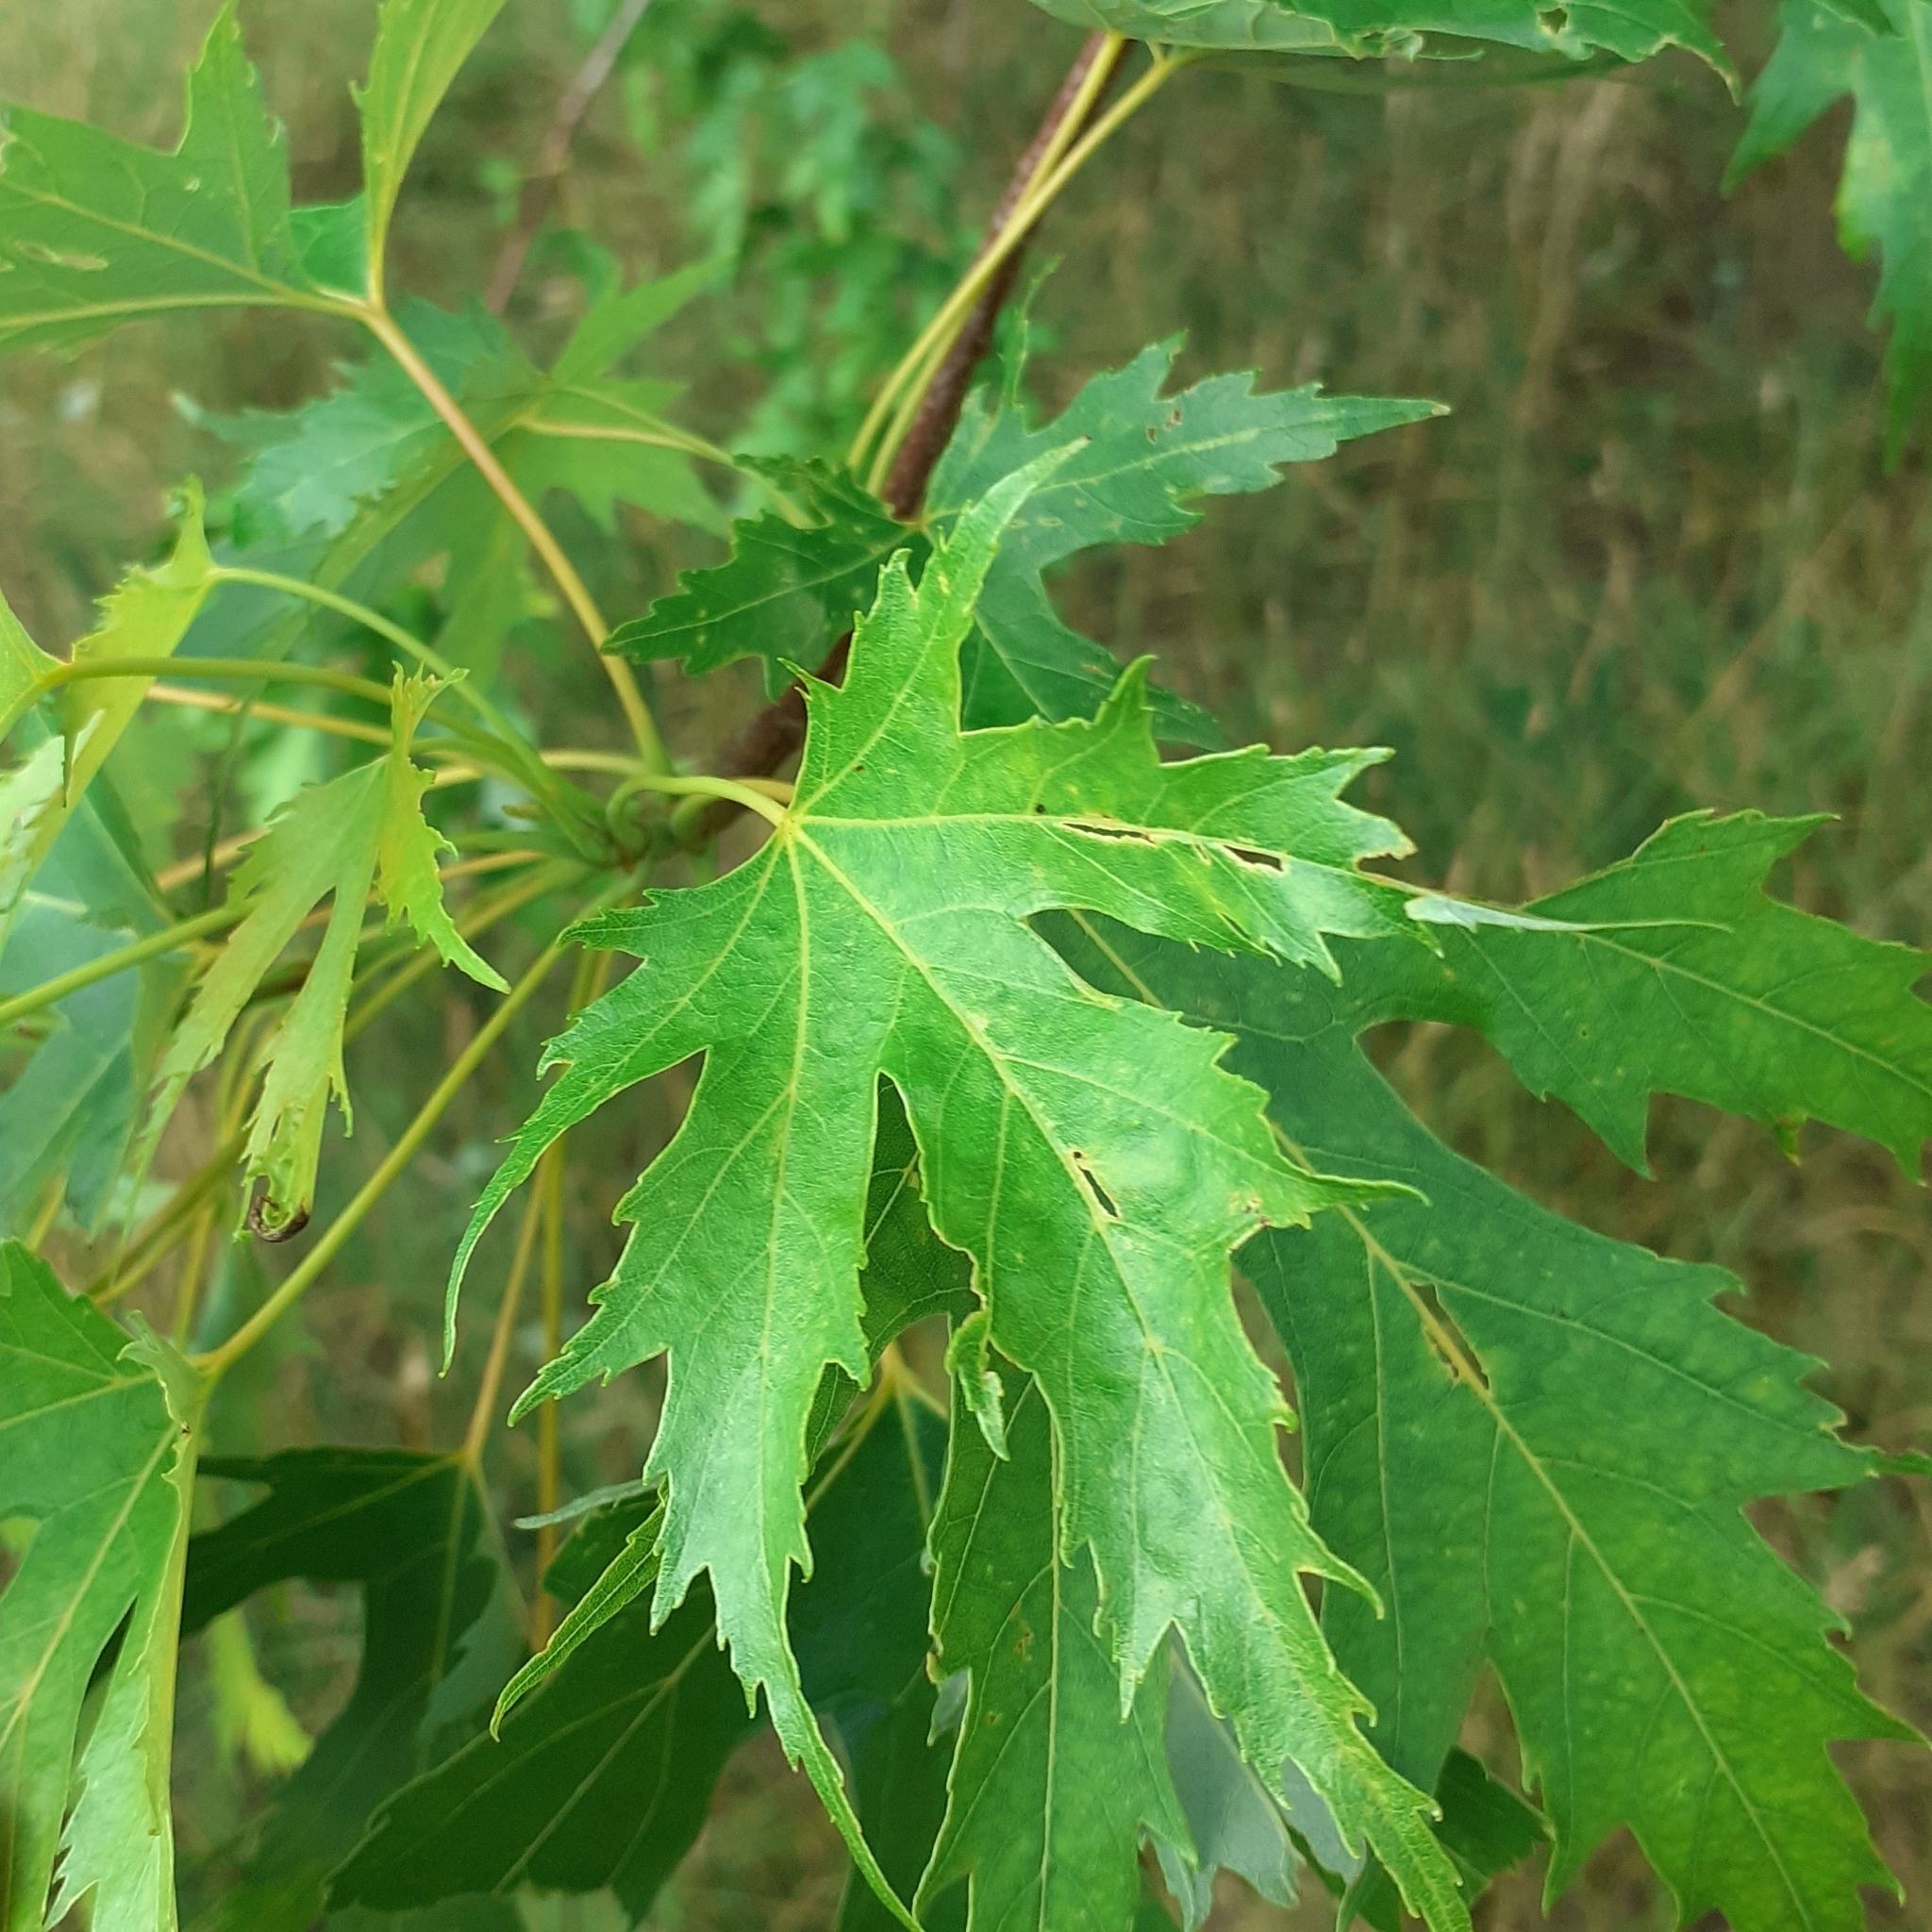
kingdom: Plantae
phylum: Tracheophyta
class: Magnoliopsida
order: Sapindales
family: Sapindaceae
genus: Acer
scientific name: Acer saccharinum
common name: Silver maple
